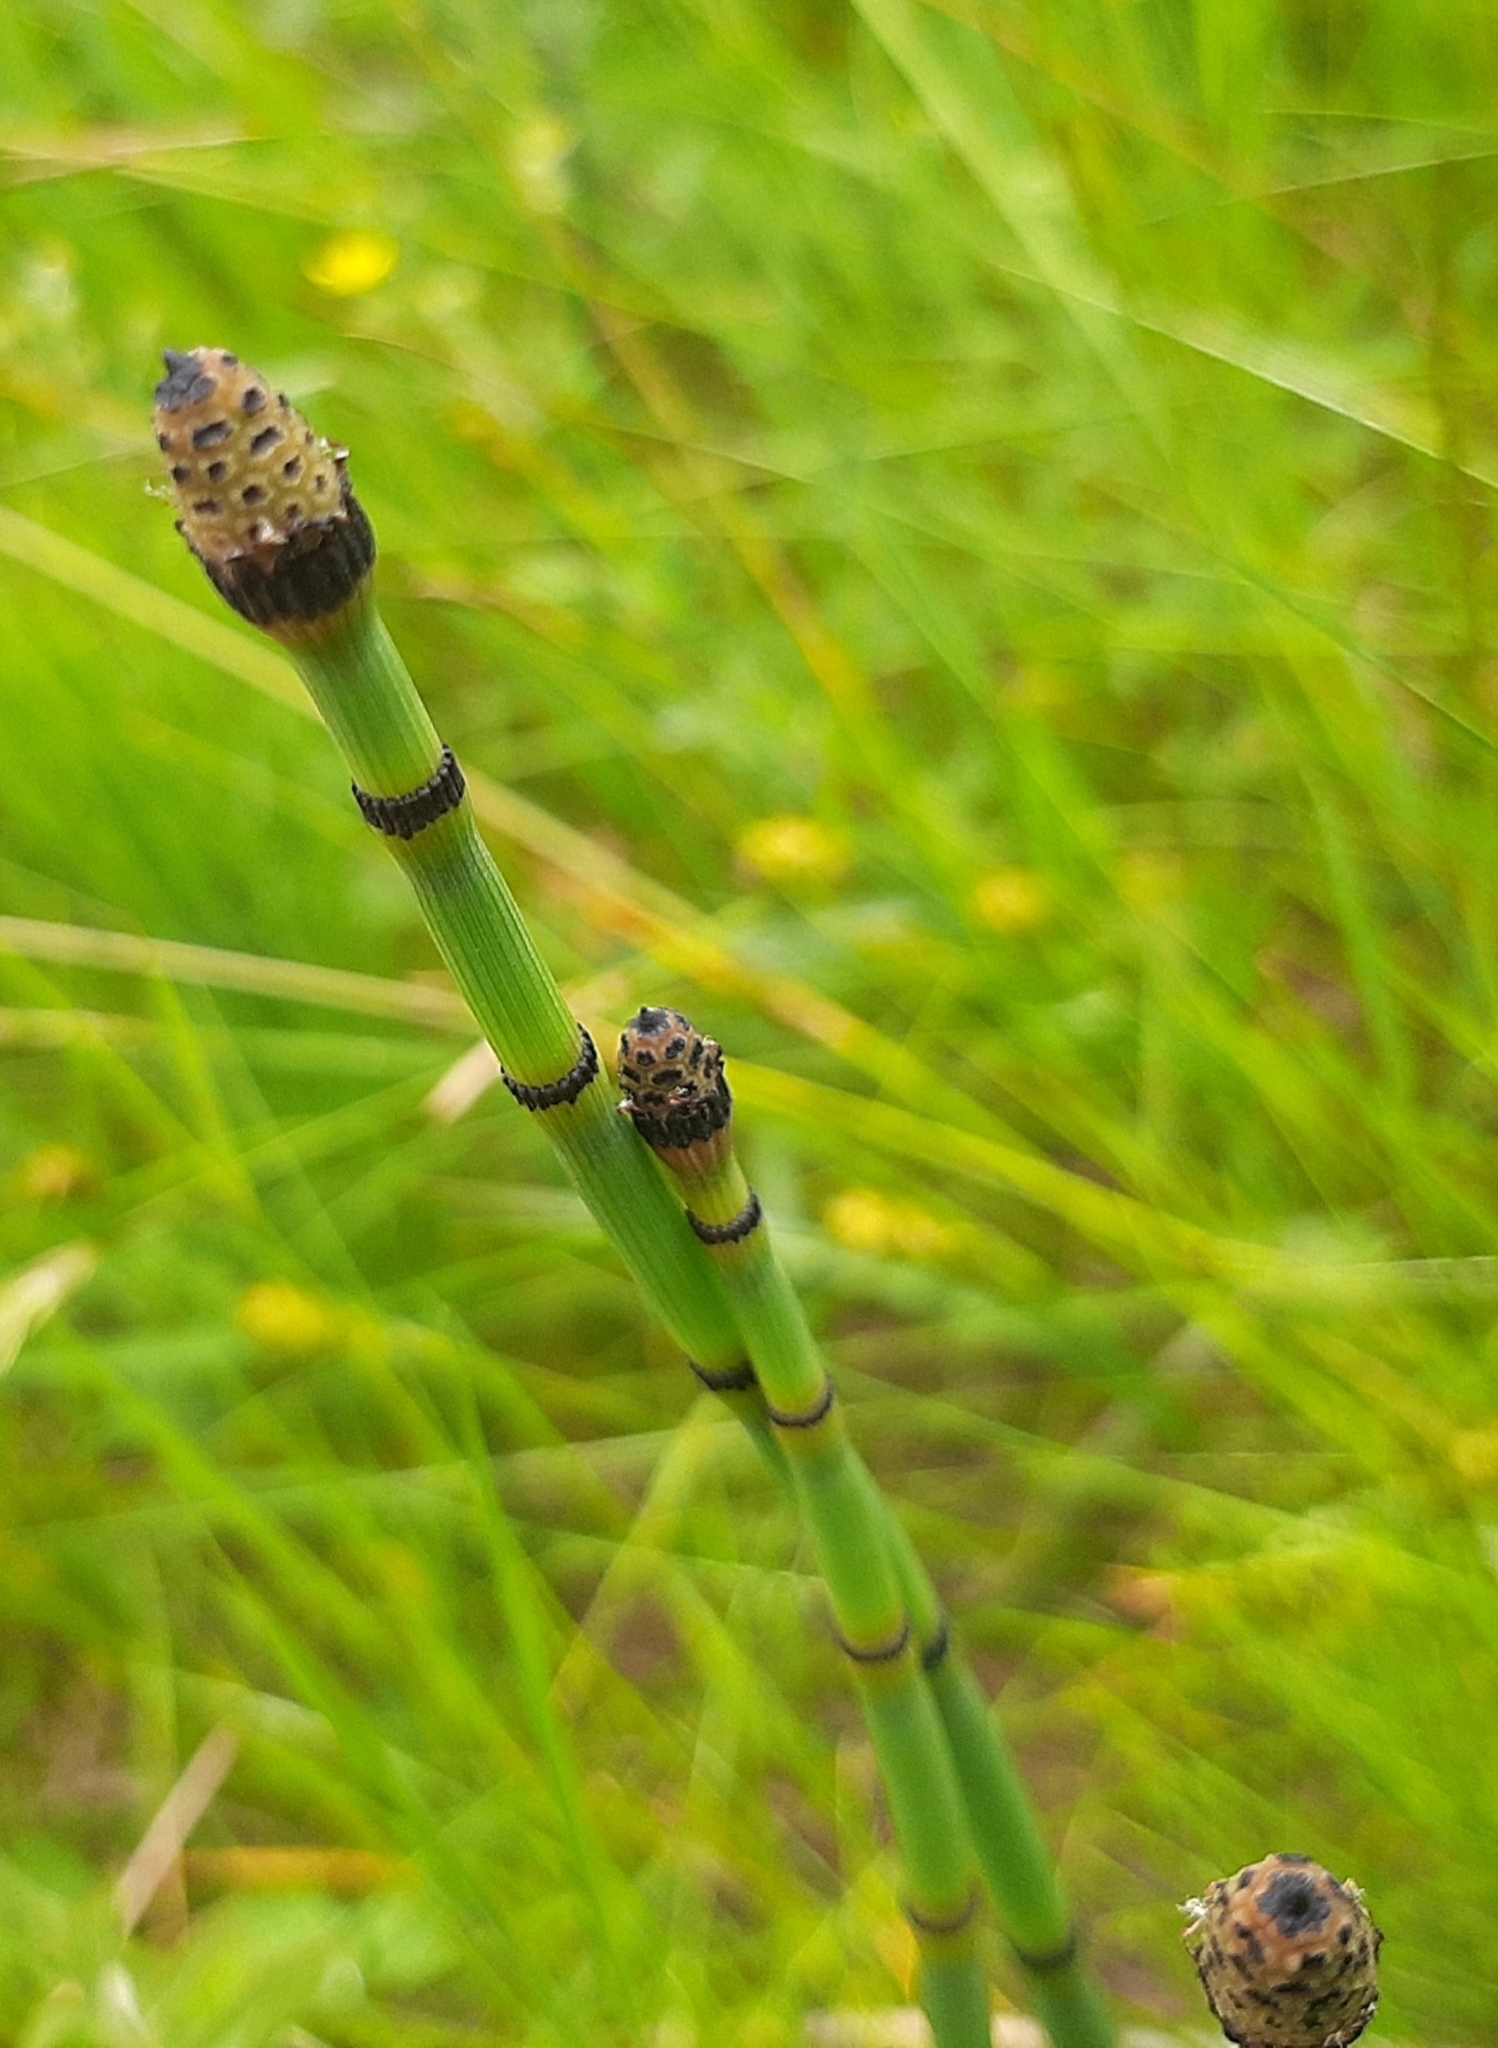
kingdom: Plantae
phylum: Tracheophyta
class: Polypodiopsida
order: Equisetales
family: Equisetaceae
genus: Equisetum
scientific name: Equisetum hyemale
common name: Rough horsetail
